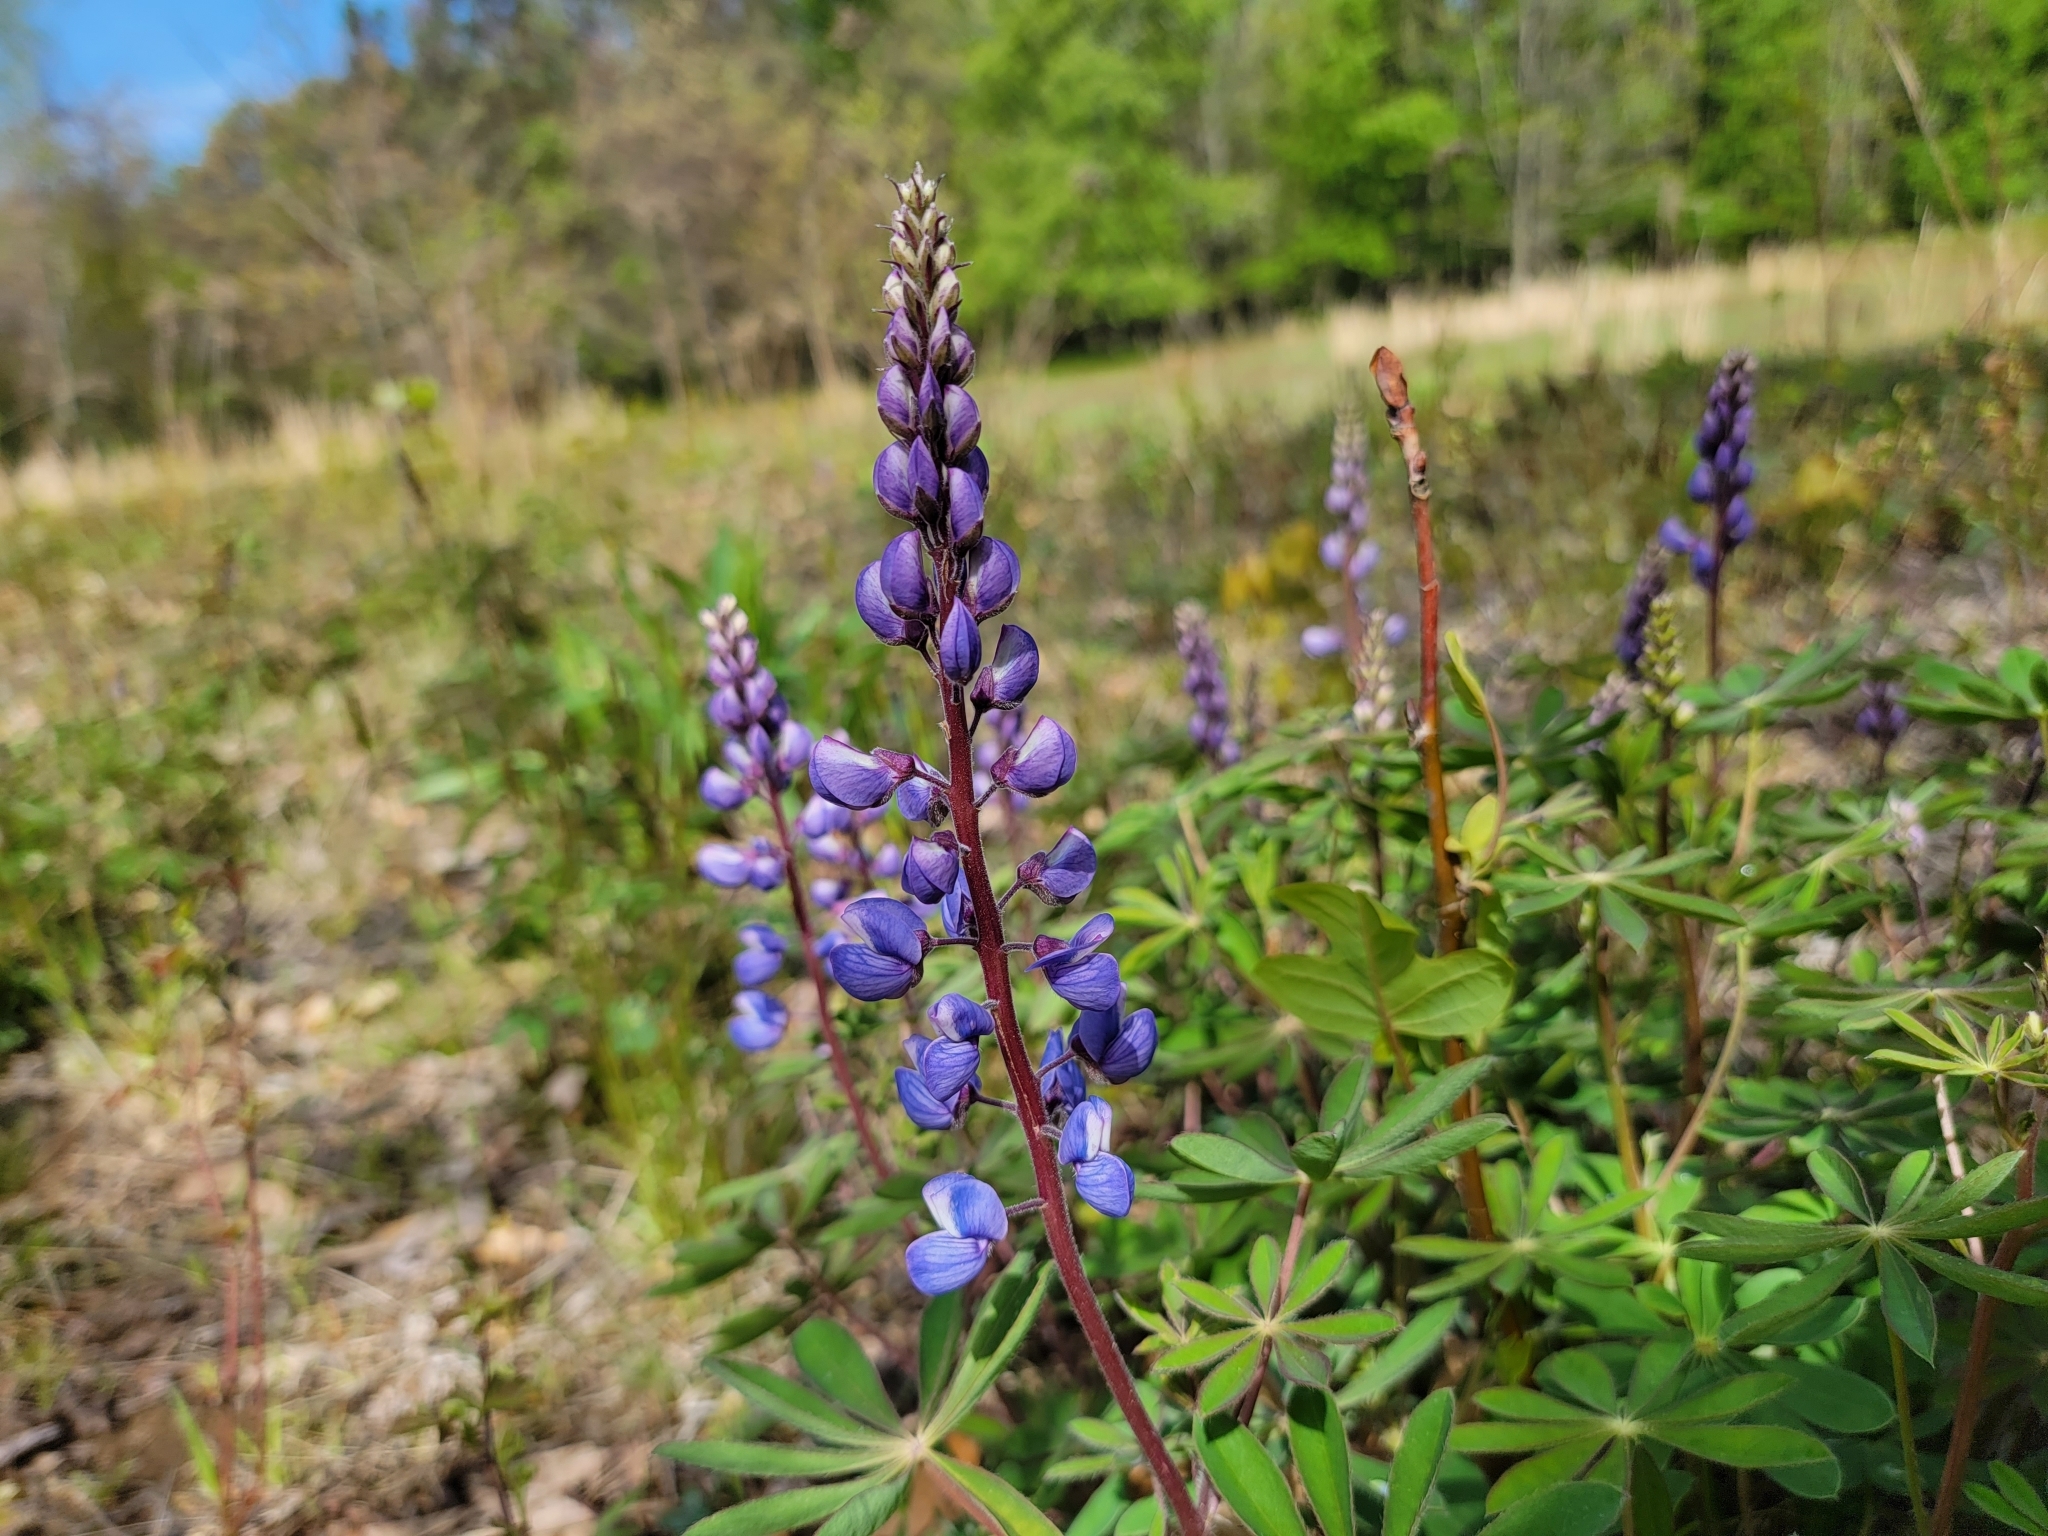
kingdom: Plantae
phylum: Tracheophyta
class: Magnoliopsida
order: Fabales
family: Fabaceae
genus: Lupinus
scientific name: Lupinus perennis
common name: Sundial lupine
